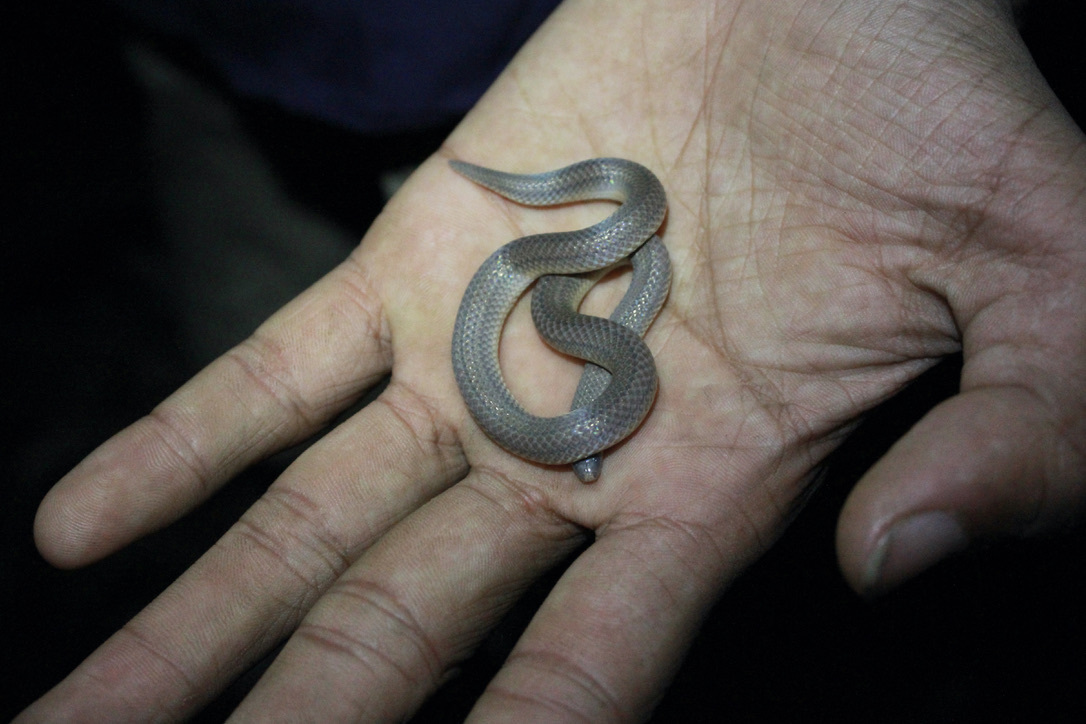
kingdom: Animalia
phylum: Chordata
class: Squamata
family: Colubridae
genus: Atractus
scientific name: Atractus trilineatus
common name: Three-lined ground snake
